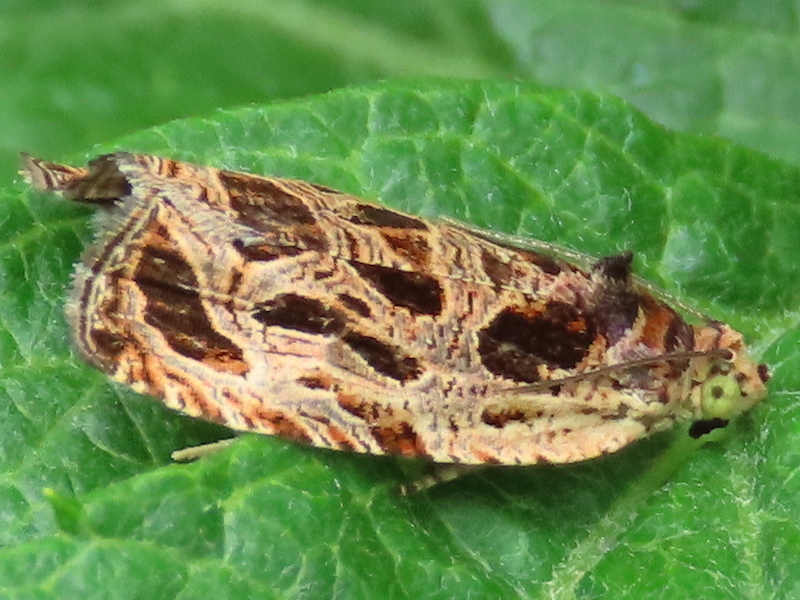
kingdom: Animalia
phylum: Arthropoda
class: Insecta
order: Lepidoptera
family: Tortricidae
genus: Olethreutes
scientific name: Olethreutes tilianum
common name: Basswood olethreutes moth
